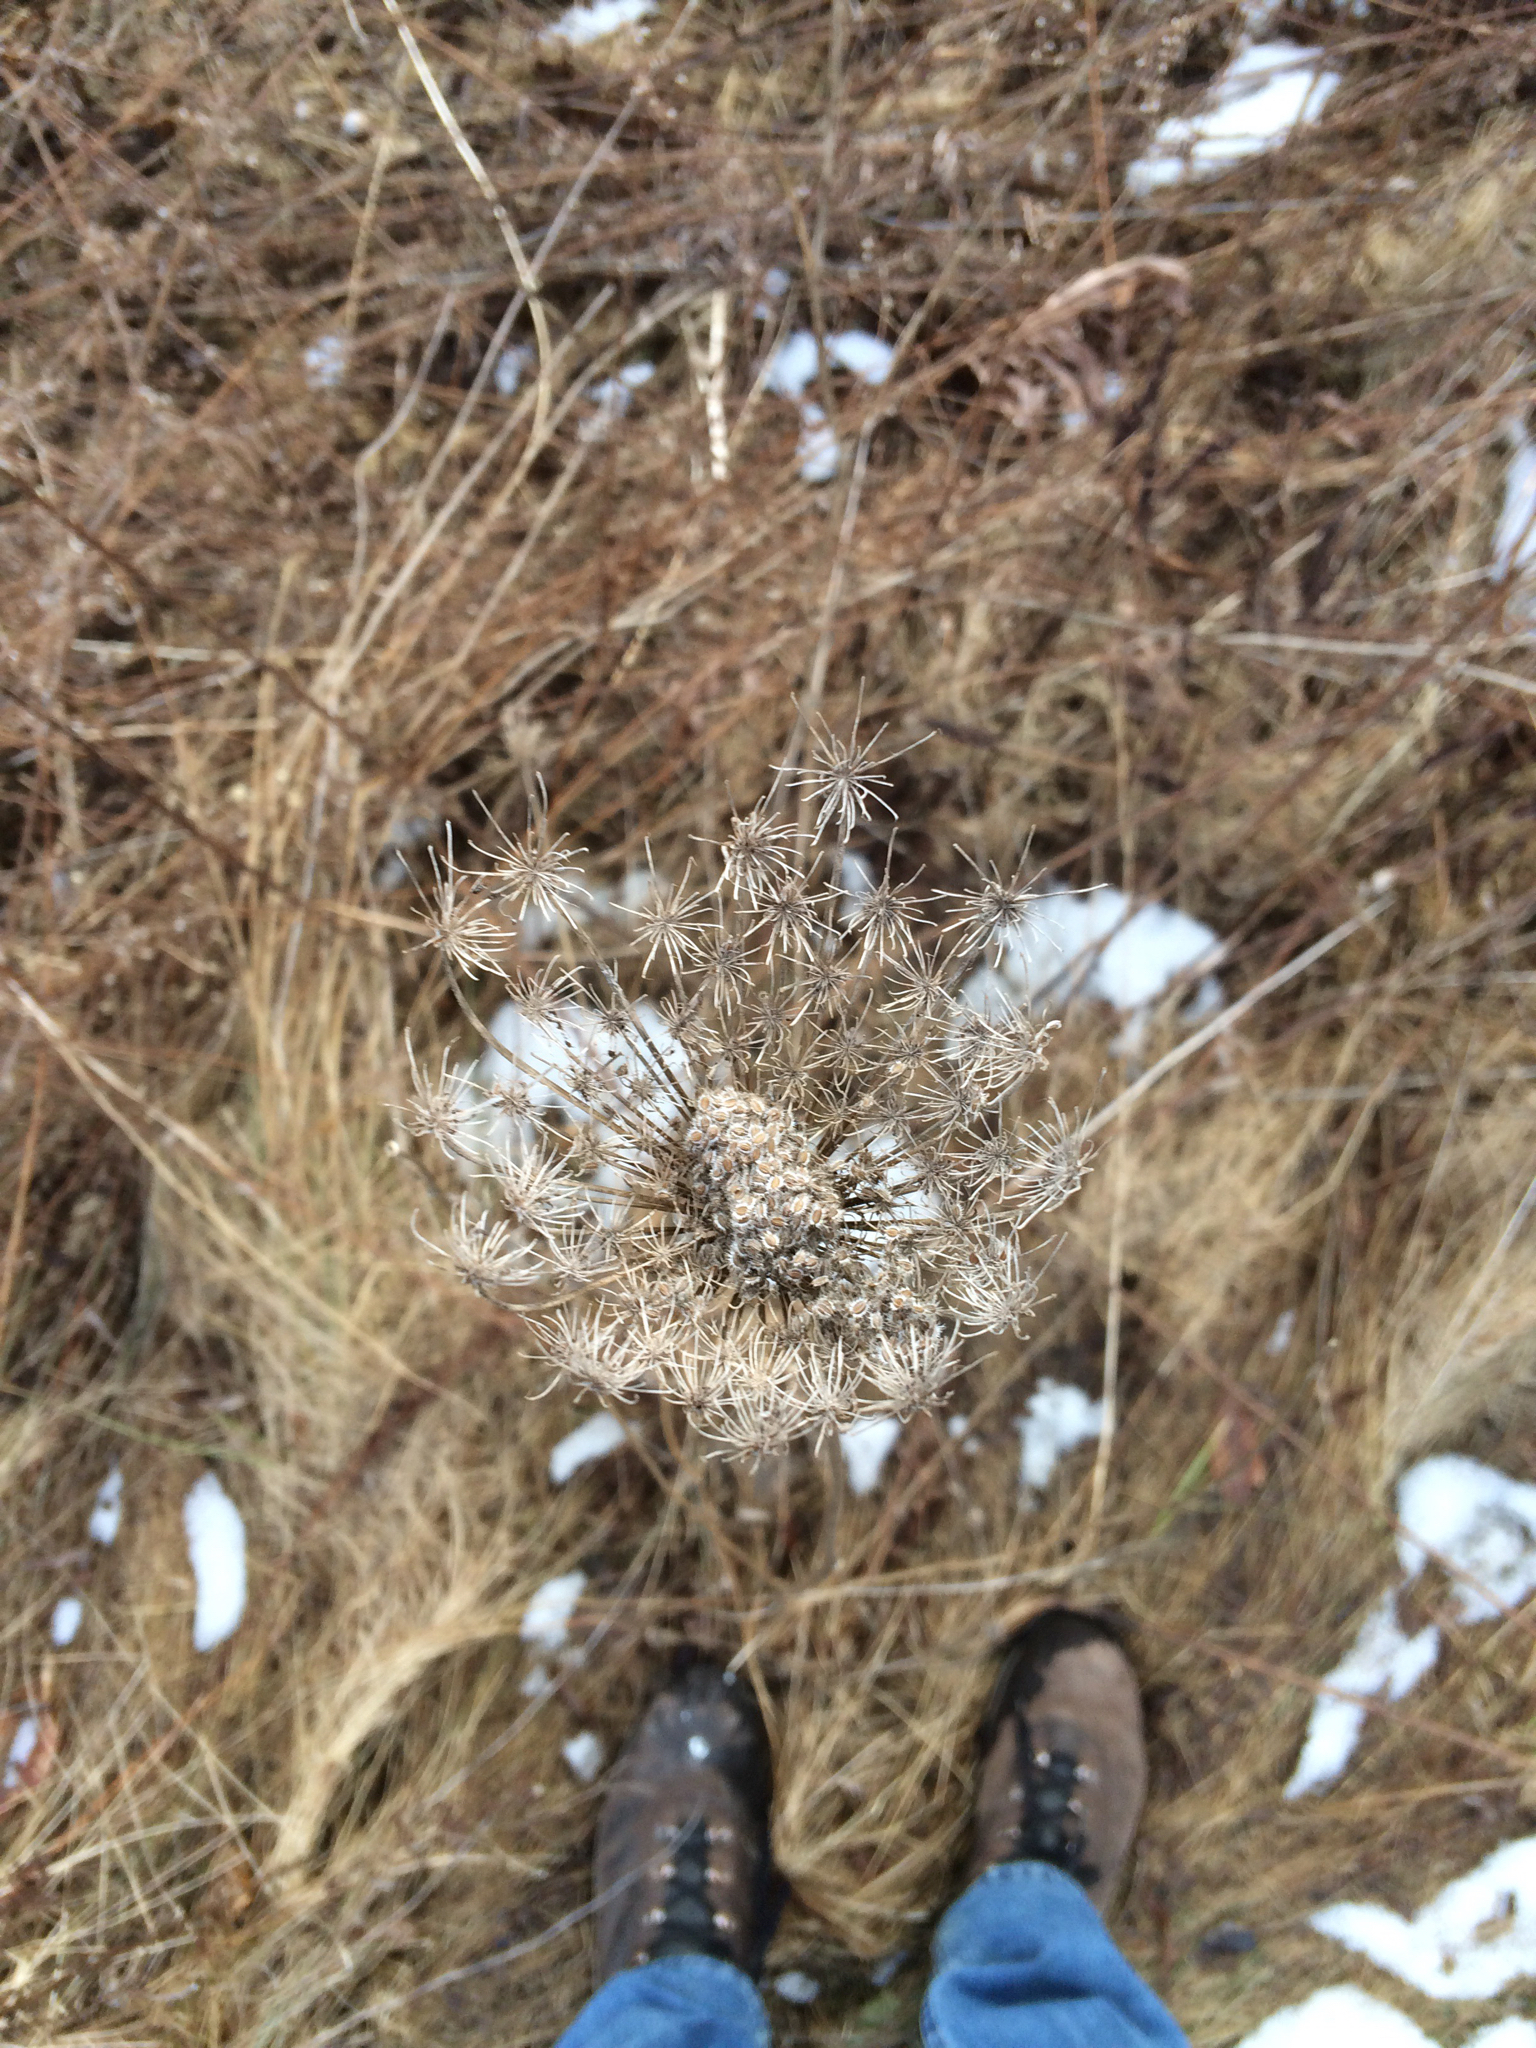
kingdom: Plantae
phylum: Tracheophyta
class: Magnoliopsida
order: Apiales
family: Apiaceae
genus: Daucus
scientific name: Daucus carota
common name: Wild carrot
